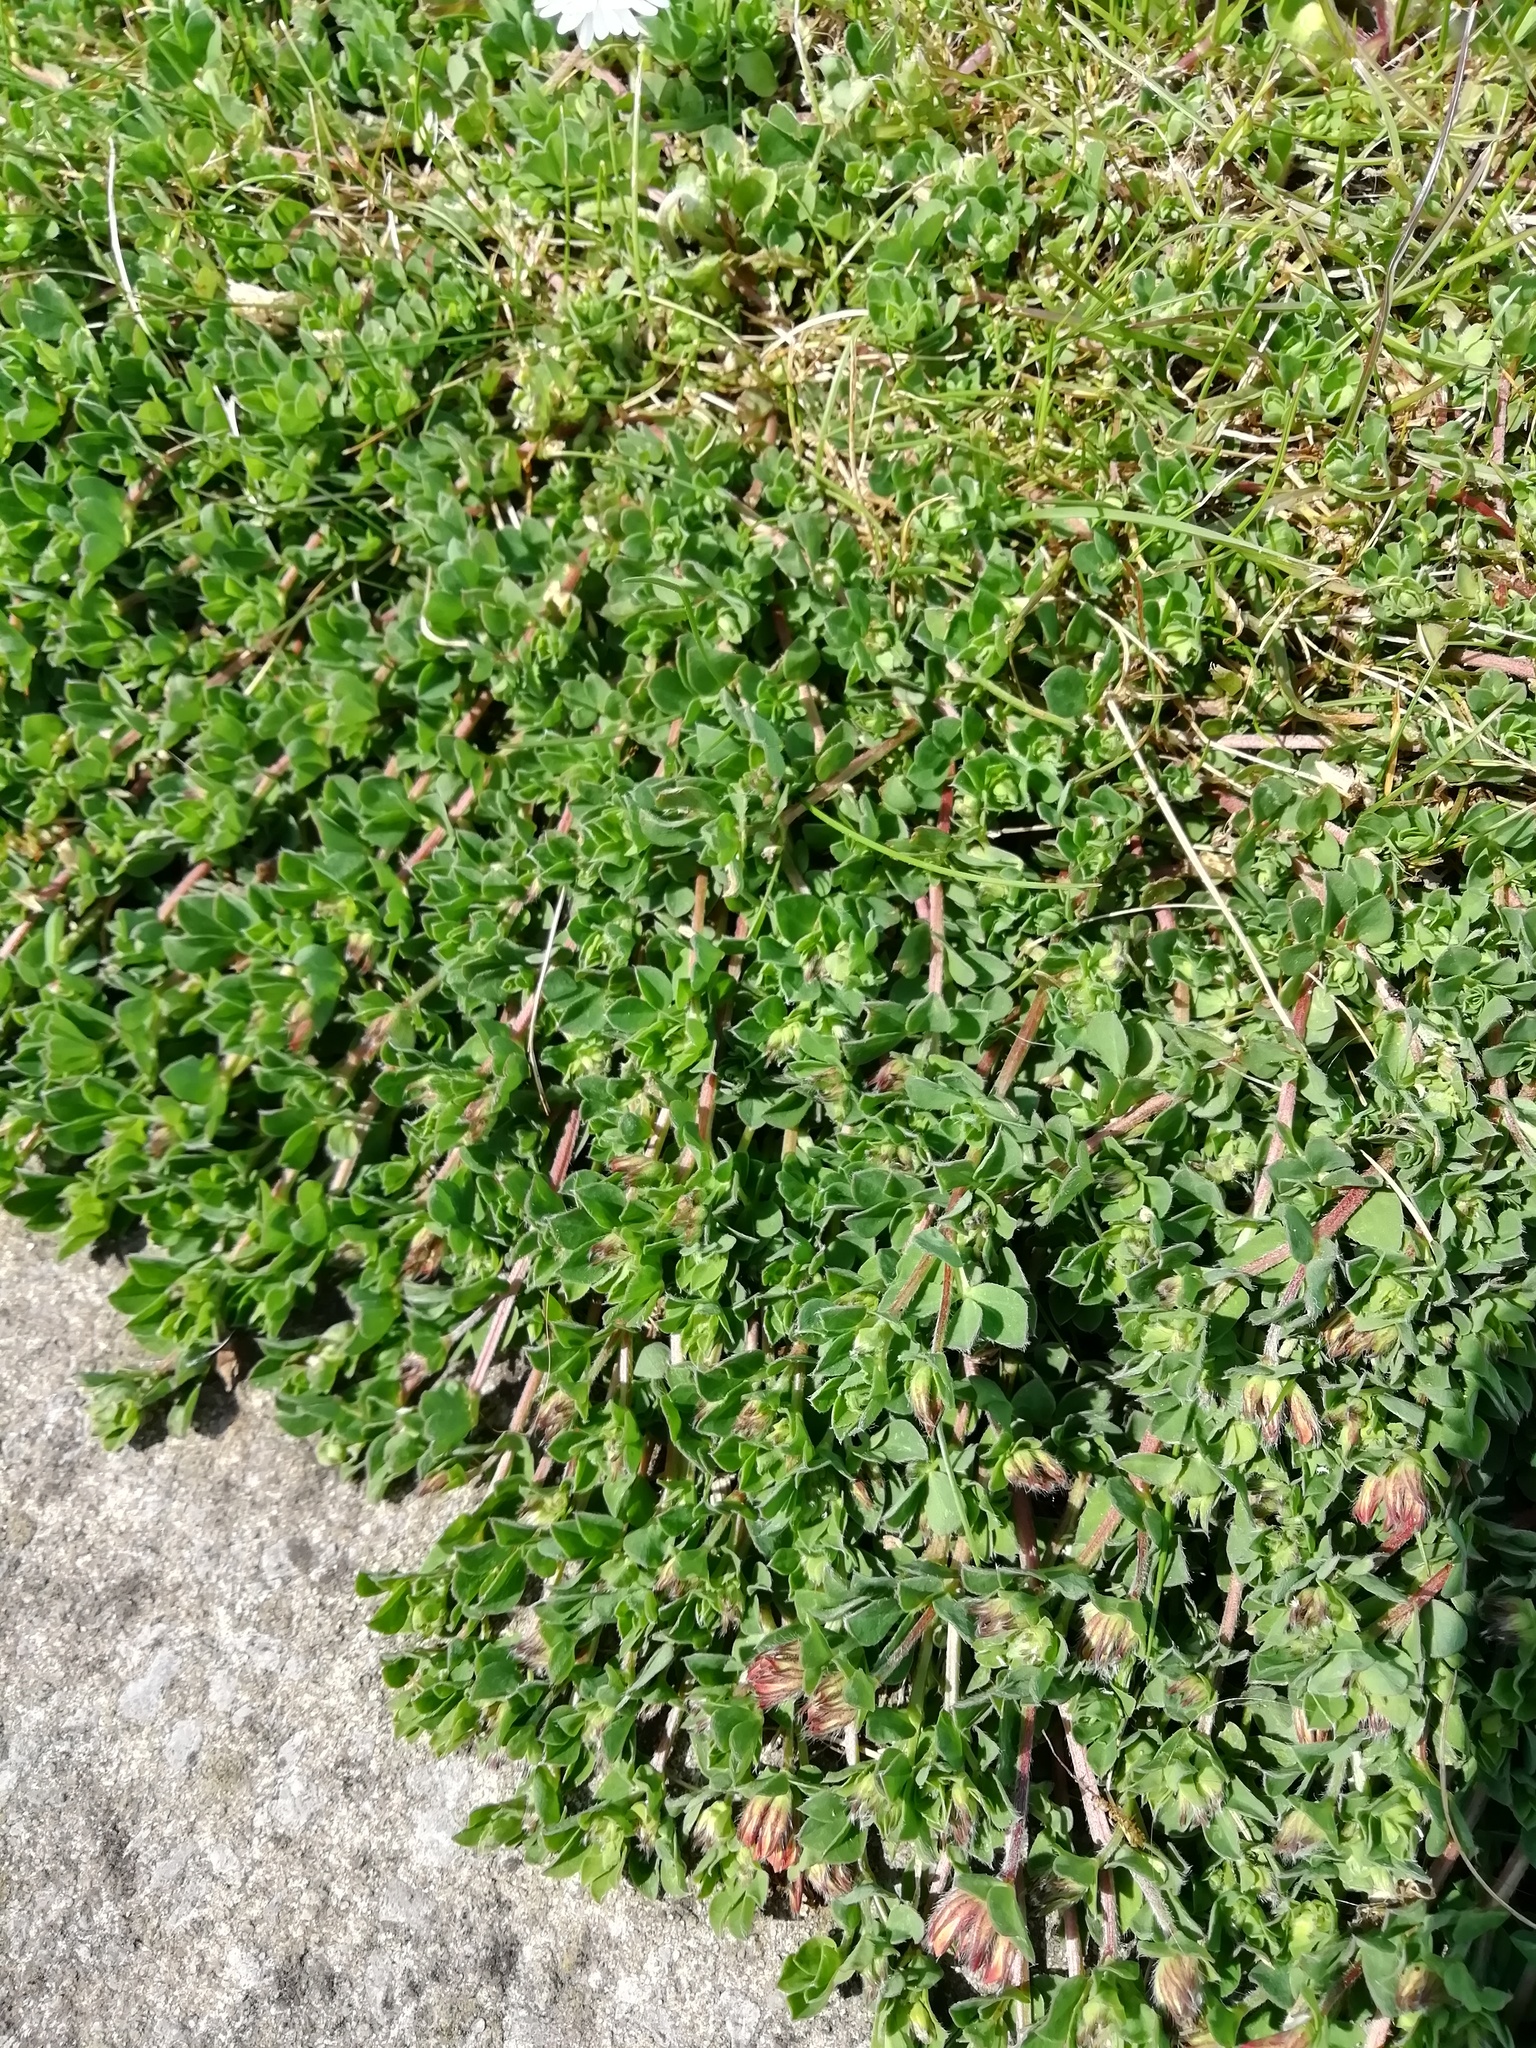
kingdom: Plantae
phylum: Tracheophyta
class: Magnoliopsida
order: Fabales
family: Fabaceae
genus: Lotus
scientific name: Lotus corniculatus
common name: Common bird's-foot-trefoil
